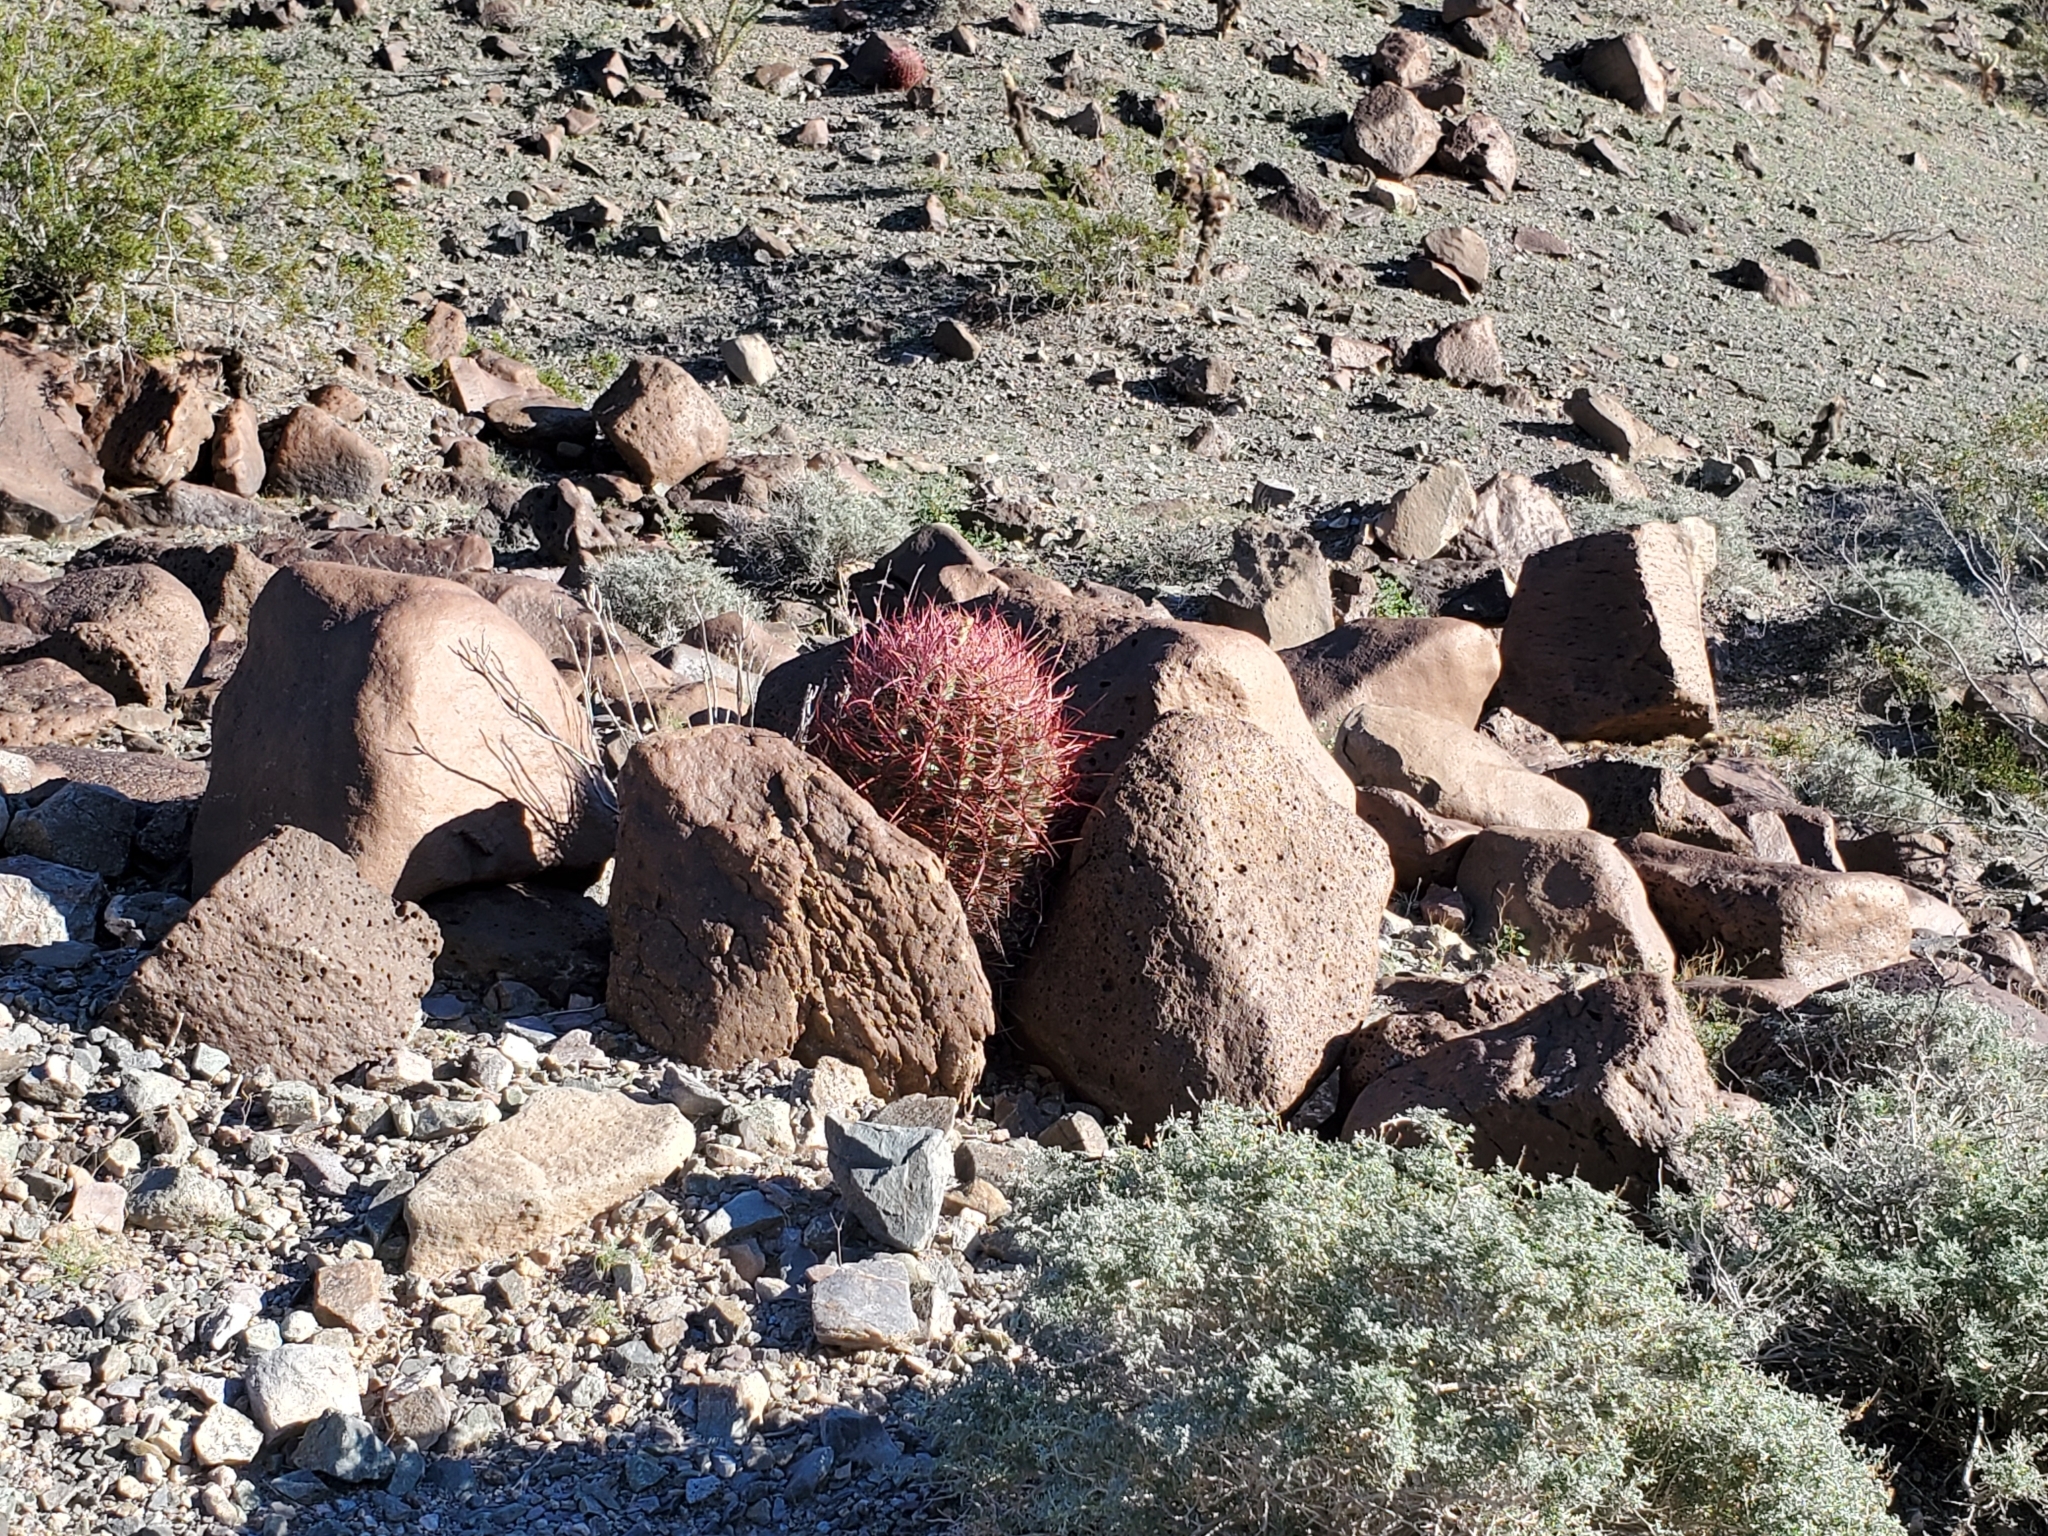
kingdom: Plantae
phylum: Tracheophyta
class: Magnoliopsida
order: Caryophyllales
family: Cactaceae
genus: Ferocactus
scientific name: Ferocactus cylindraceus
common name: California barrel cactus
